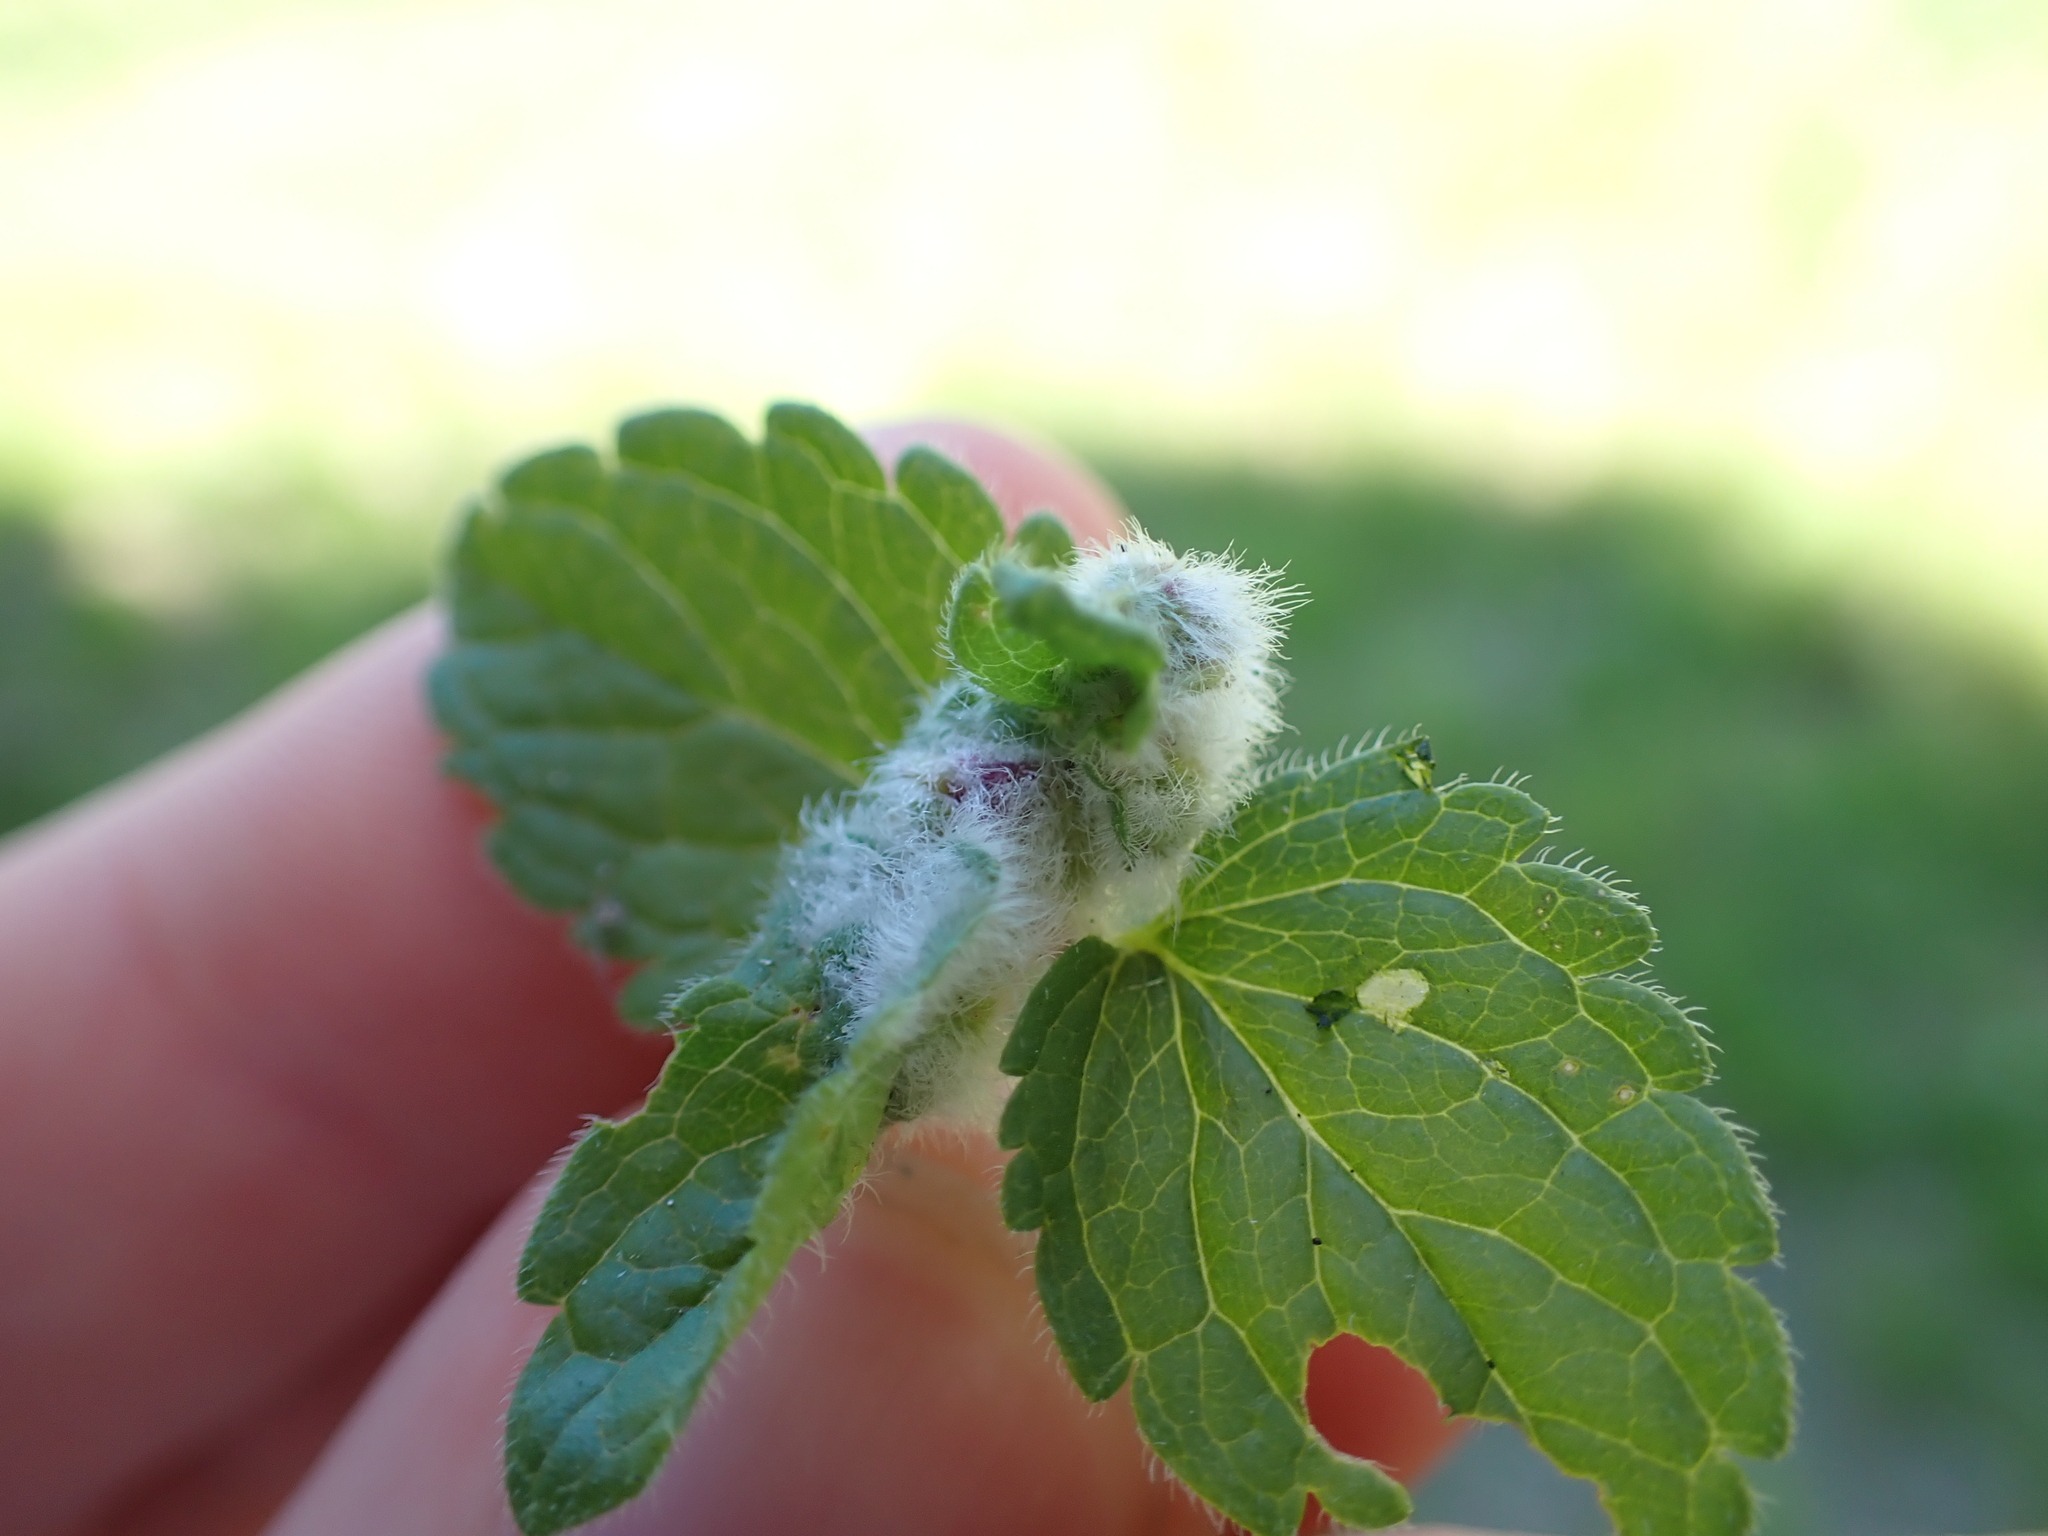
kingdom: Animalia
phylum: Arthropoda
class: Insecta
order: Diptera
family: Cecidomyiidae
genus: Jaapiella
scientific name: Jaapiella veronicae
